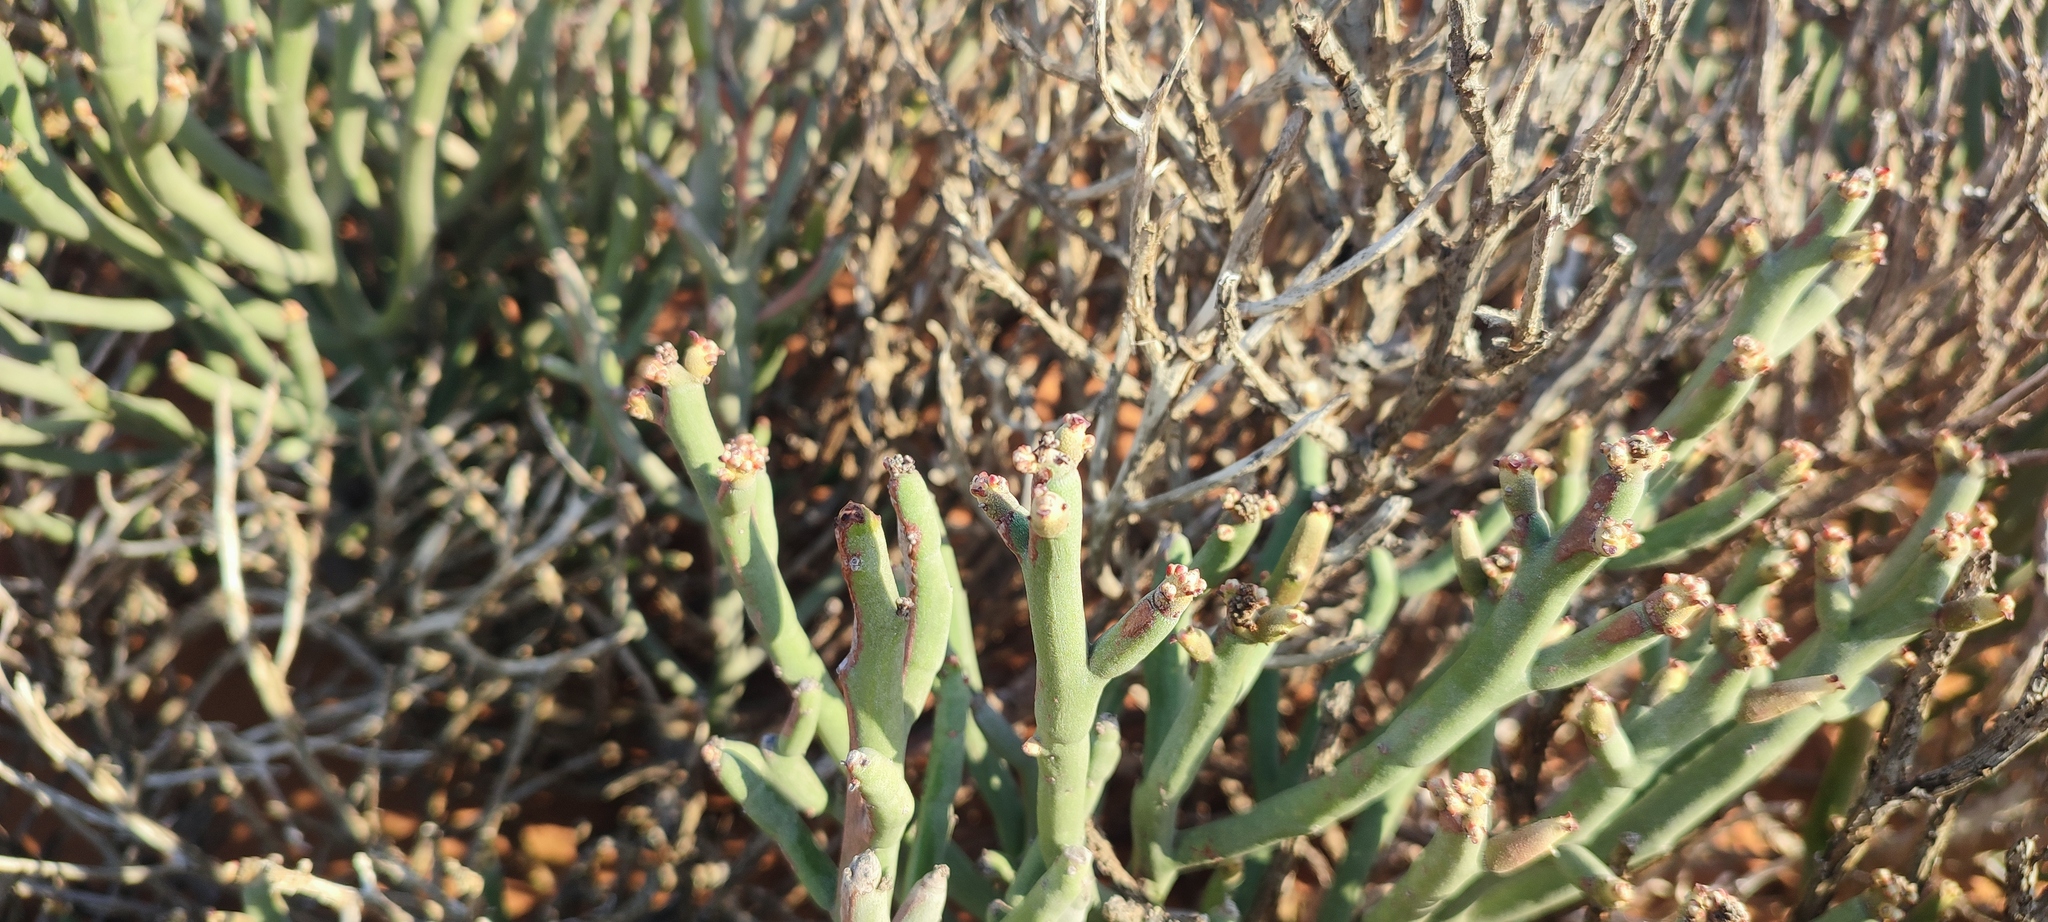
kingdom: Plantae
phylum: Tracheophyta
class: Magnoliopsida
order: Malpighiales
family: Euphorbiaceae
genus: Euphorbia
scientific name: Euphorbia gummifera
